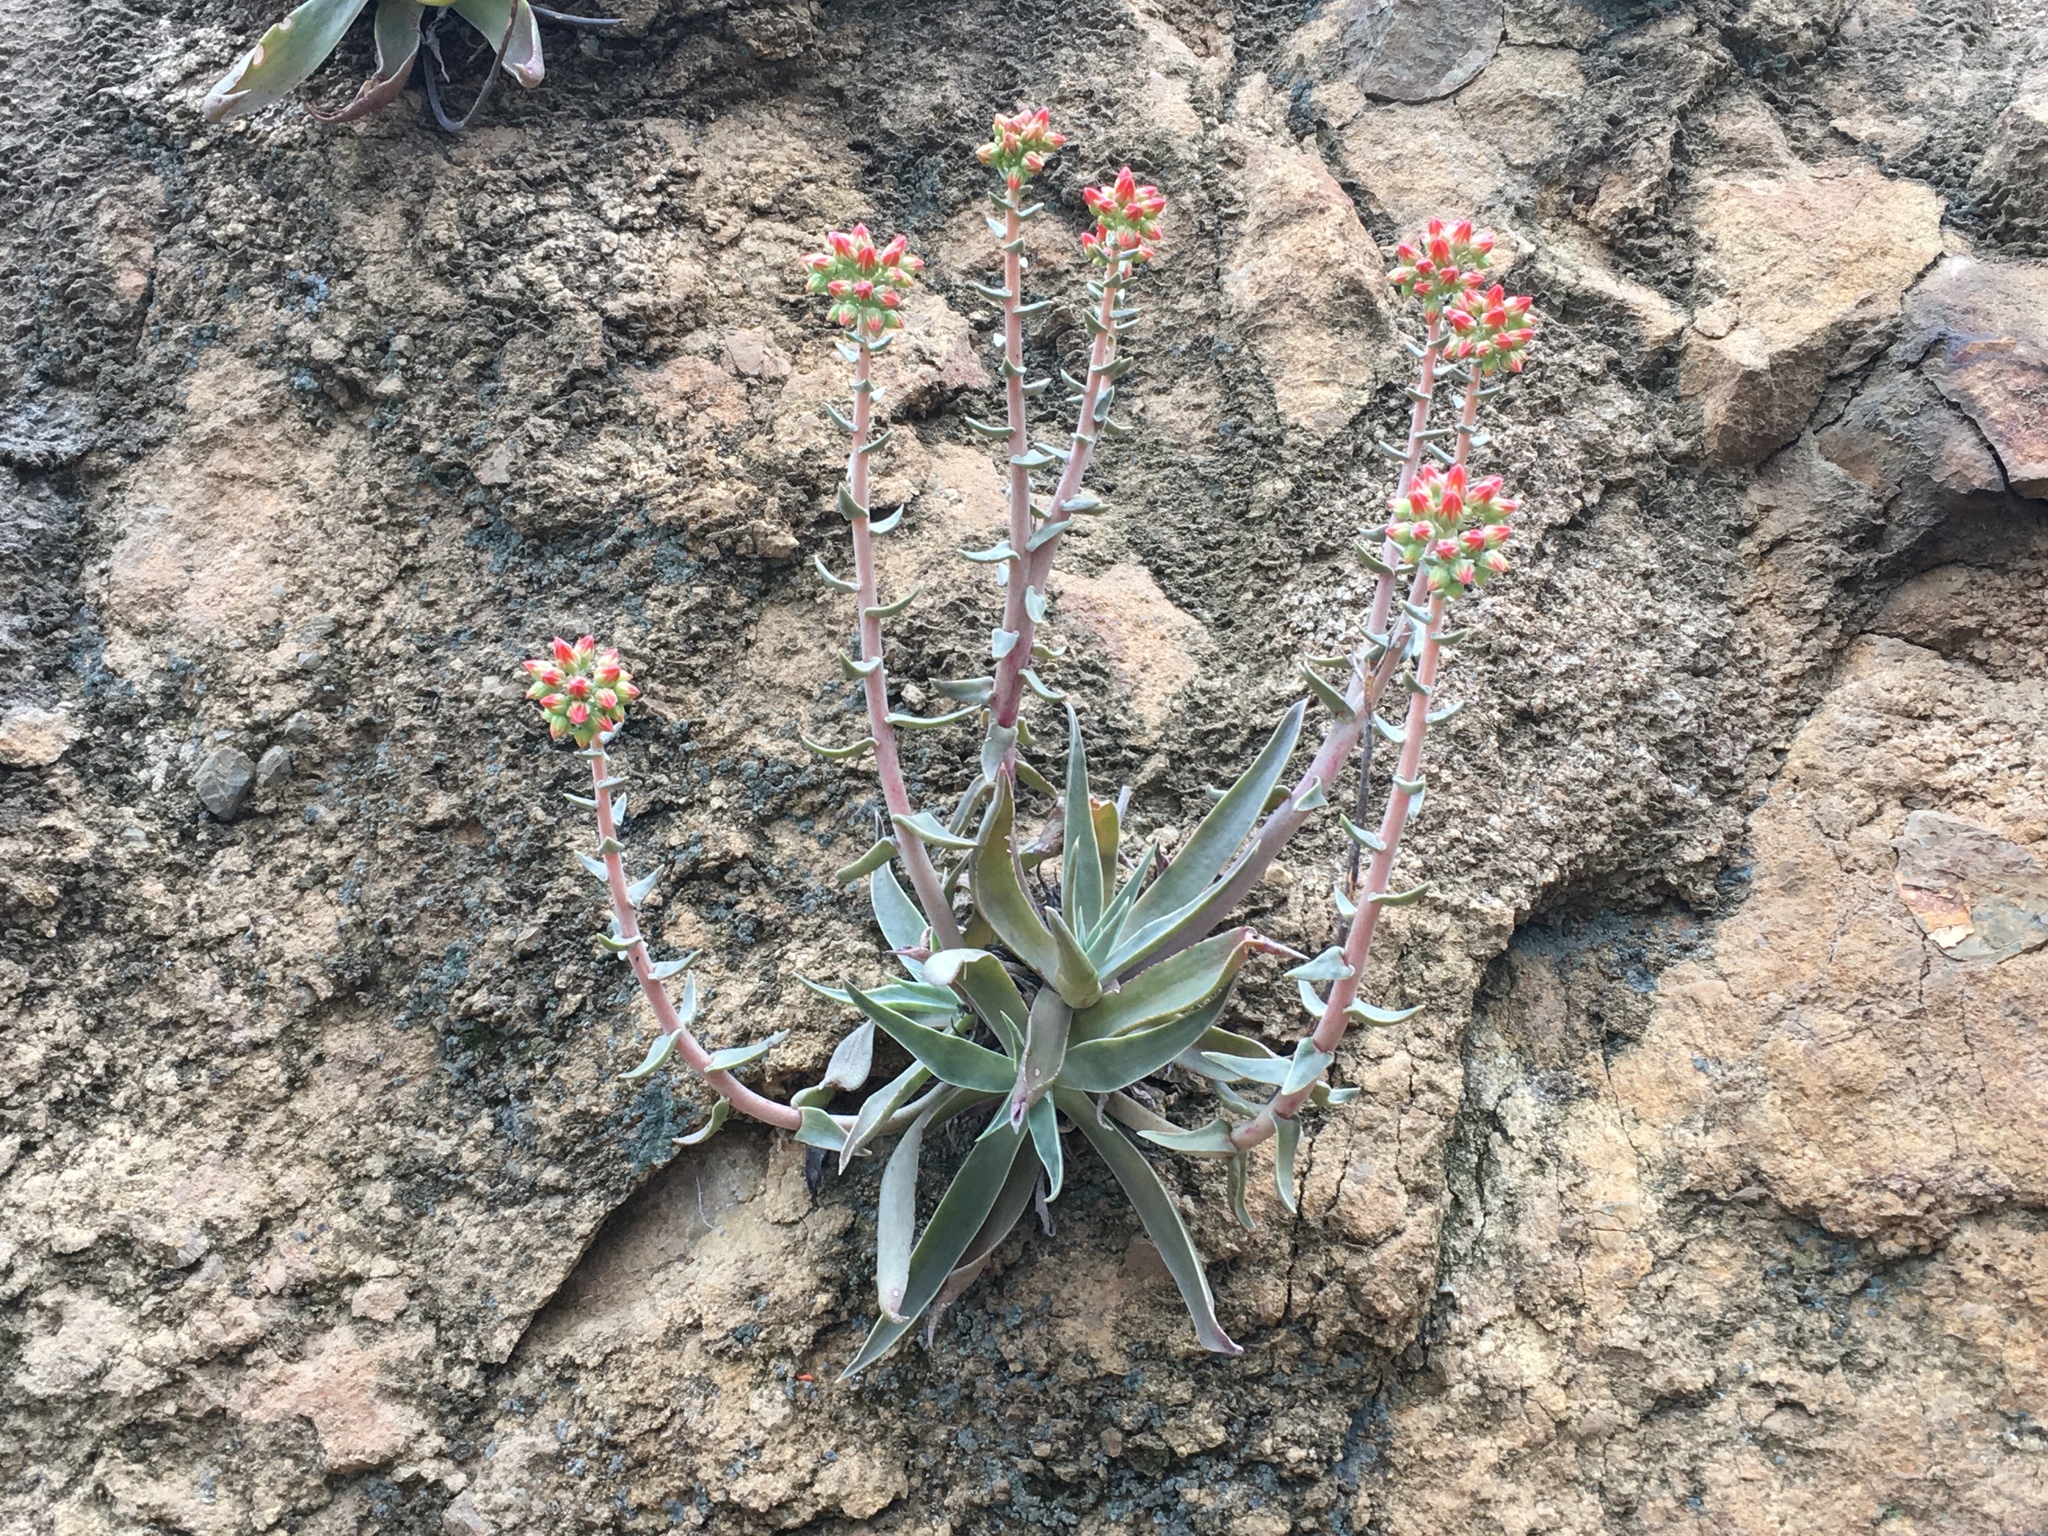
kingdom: Plantae
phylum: Tracheophyta
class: Magnoliopsida
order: Saxifragales
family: Crassulaceae
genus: Dudleya
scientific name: Dudleya lanceolata
